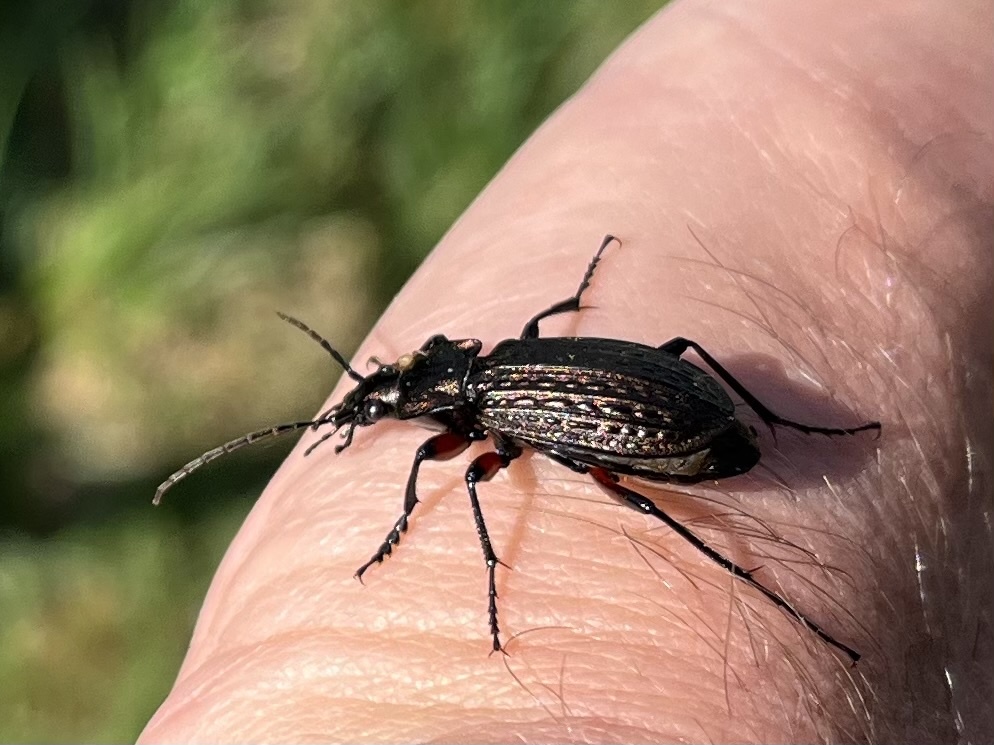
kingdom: Animalia
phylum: Arthropoda
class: Insecta
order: Coleoptera
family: Carabidae
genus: Carabus
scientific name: Carabus granulatus
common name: Granulate ground beetle
